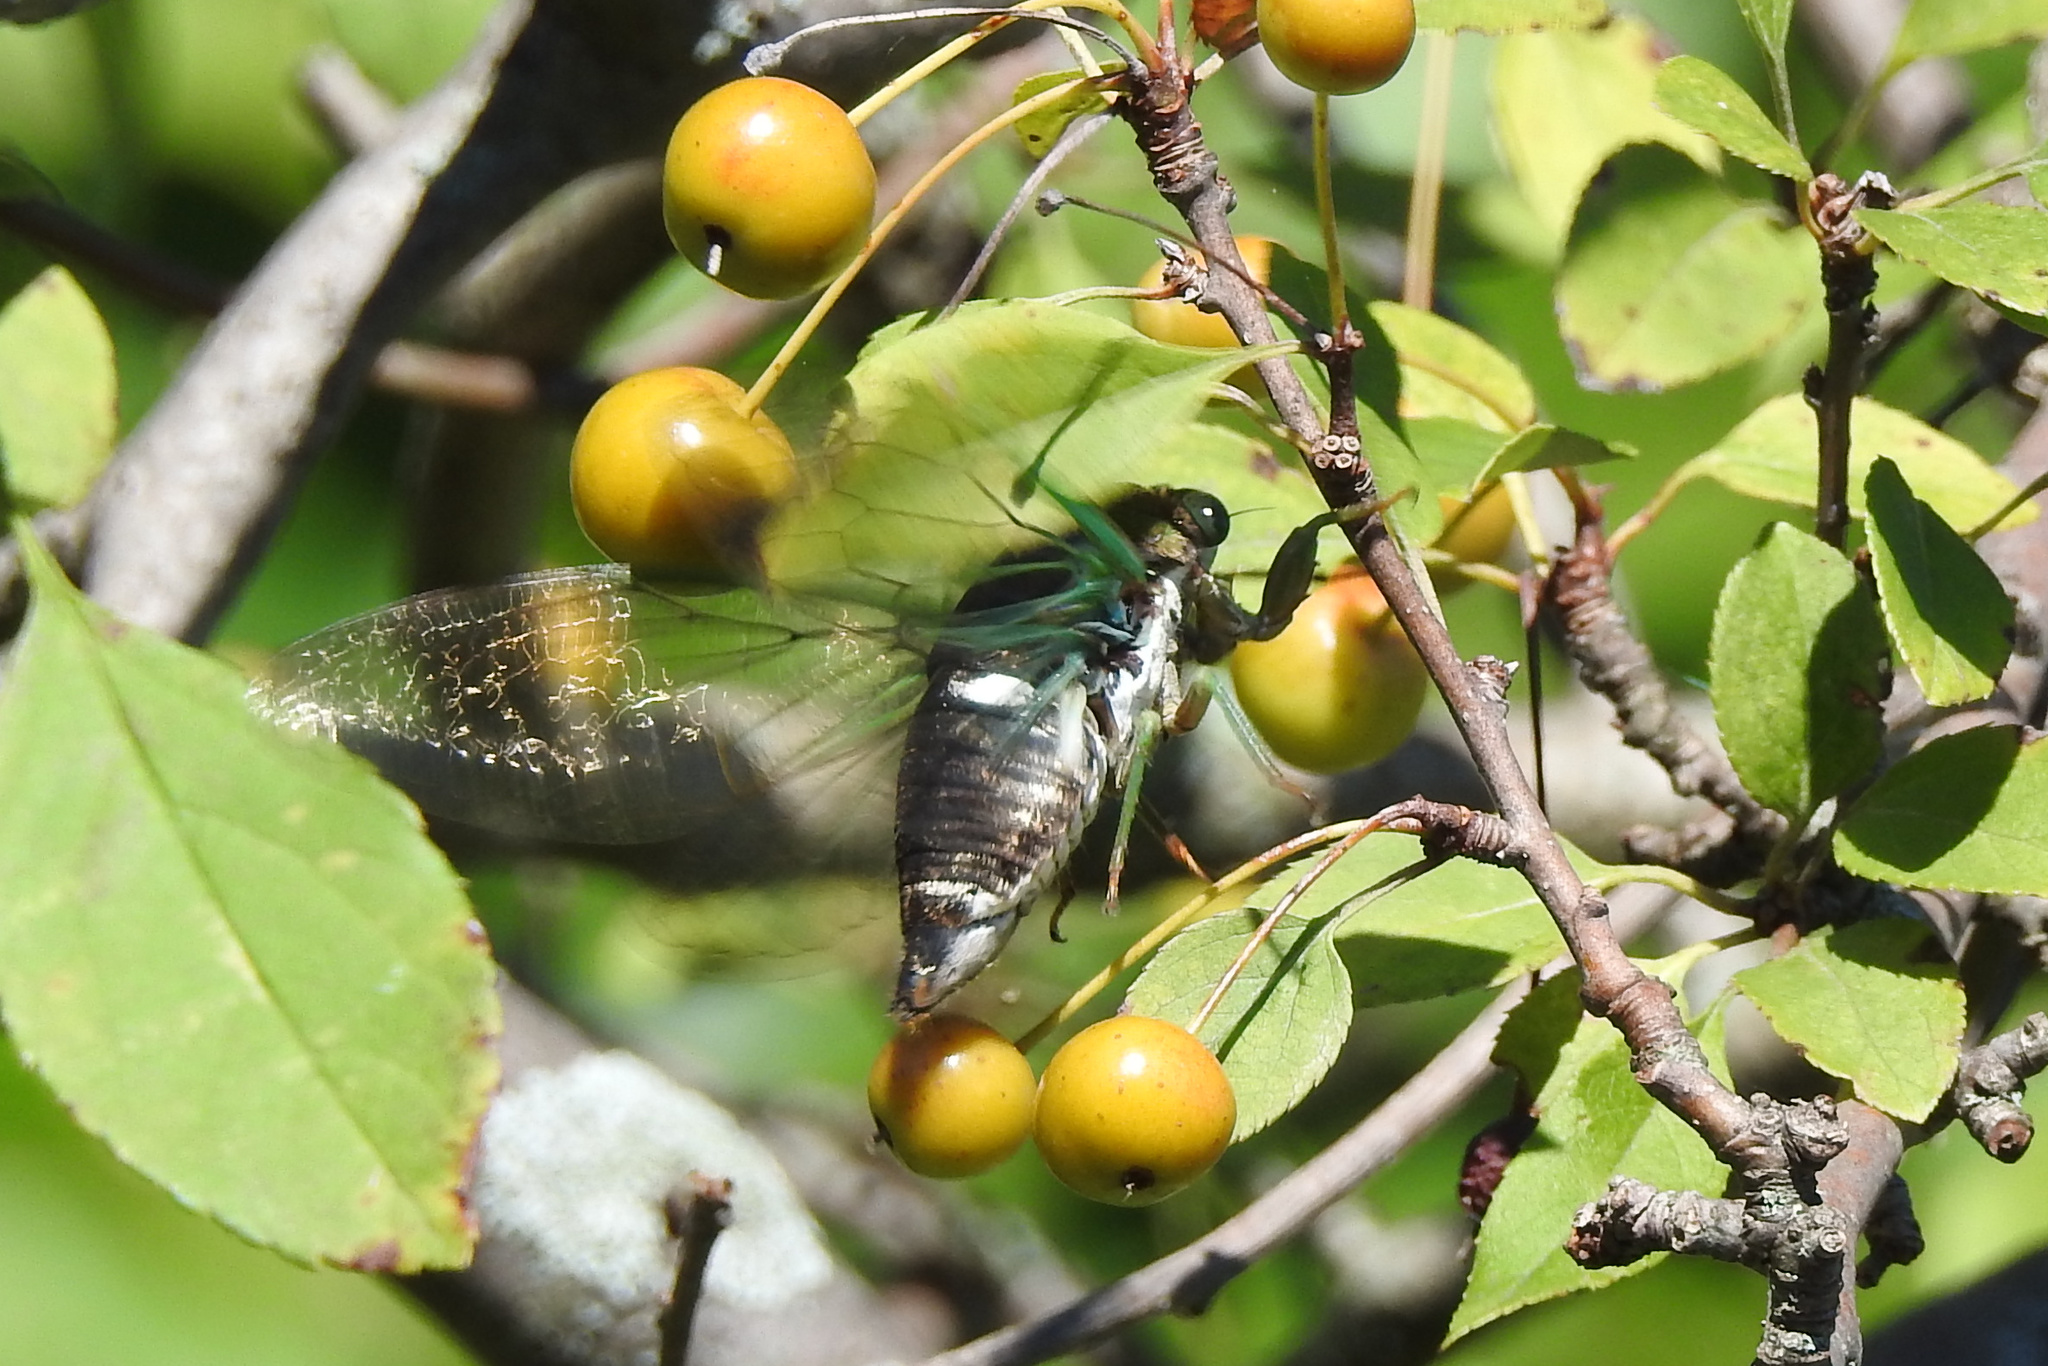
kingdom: Animalia
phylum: Arthropoda
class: Insecta
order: Hemiptera
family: Cicadidae
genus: Neotibicen
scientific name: Neotibicen tibicen
